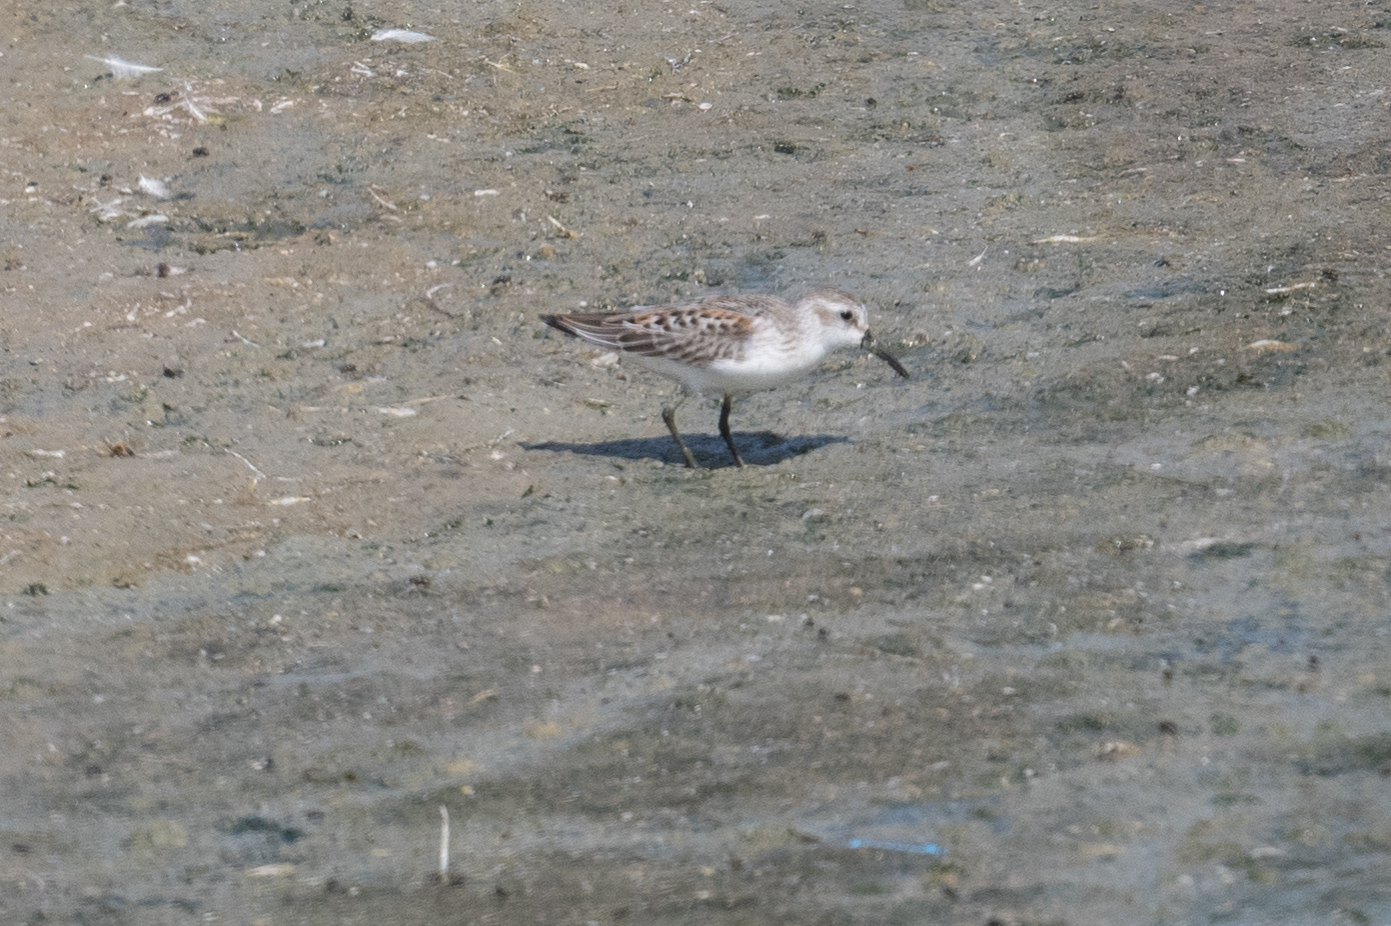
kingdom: Animalia
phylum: Chordata
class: Aves
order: Charadriiformes
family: Scolopacidae
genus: Calidris
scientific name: Calidris mauri
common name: Western sandpiper
